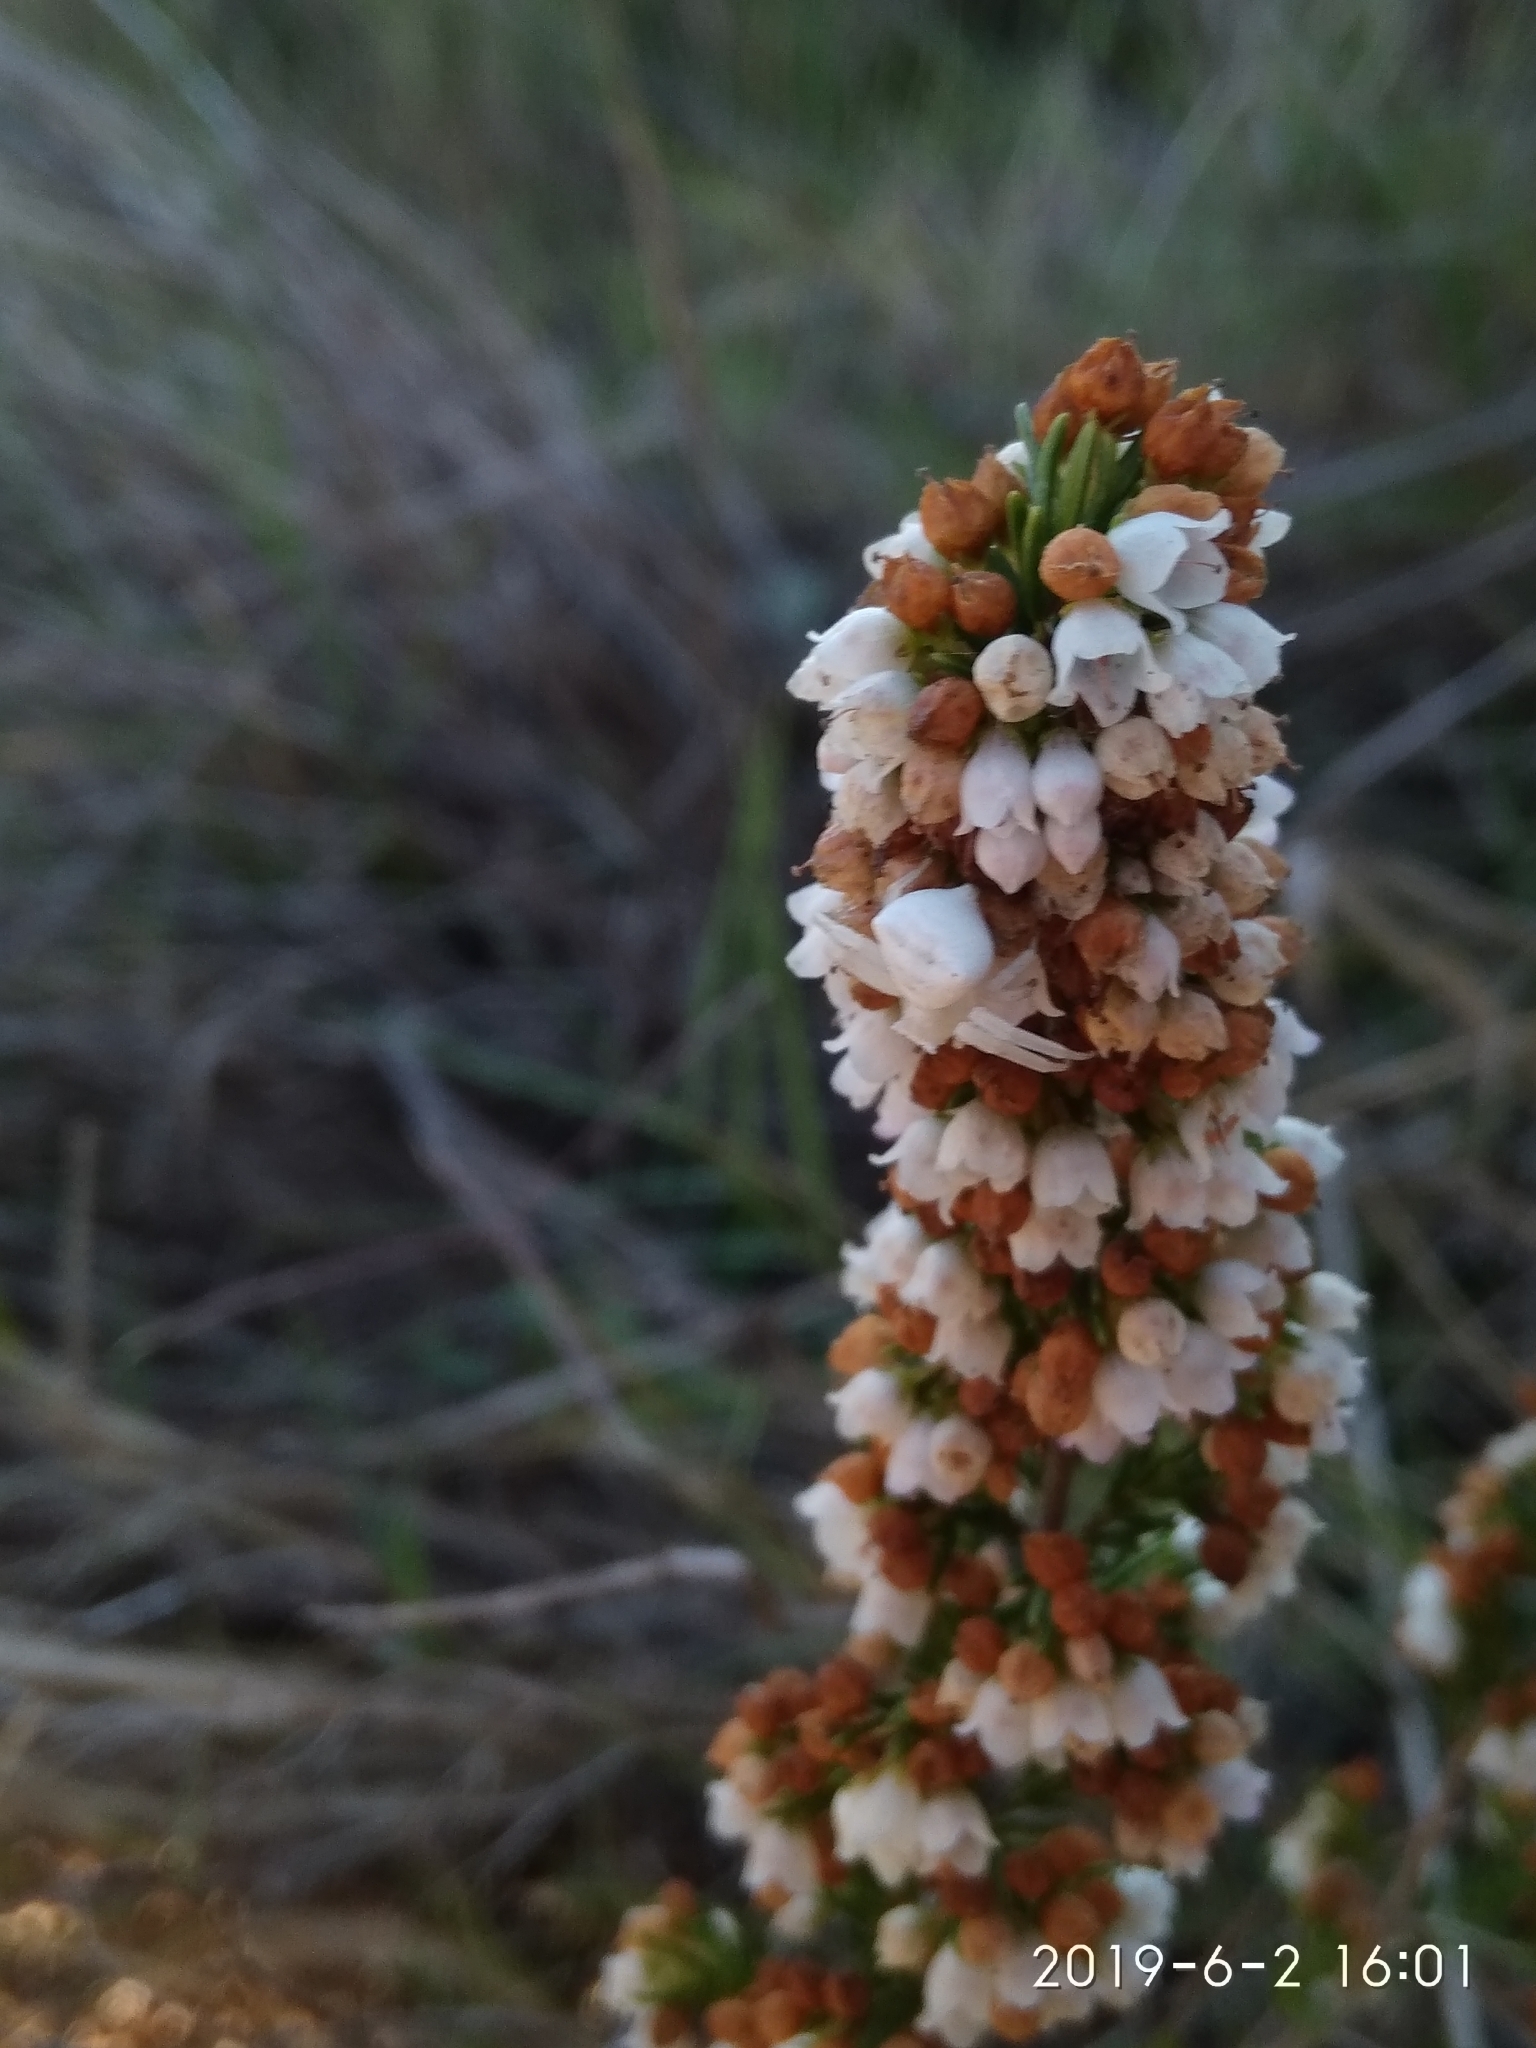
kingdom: Plantae
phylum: Tracheophyta
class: Magnoliopsida
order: Ericales
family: Ericaceae
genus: Erica
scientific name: Erica subdivaricata
